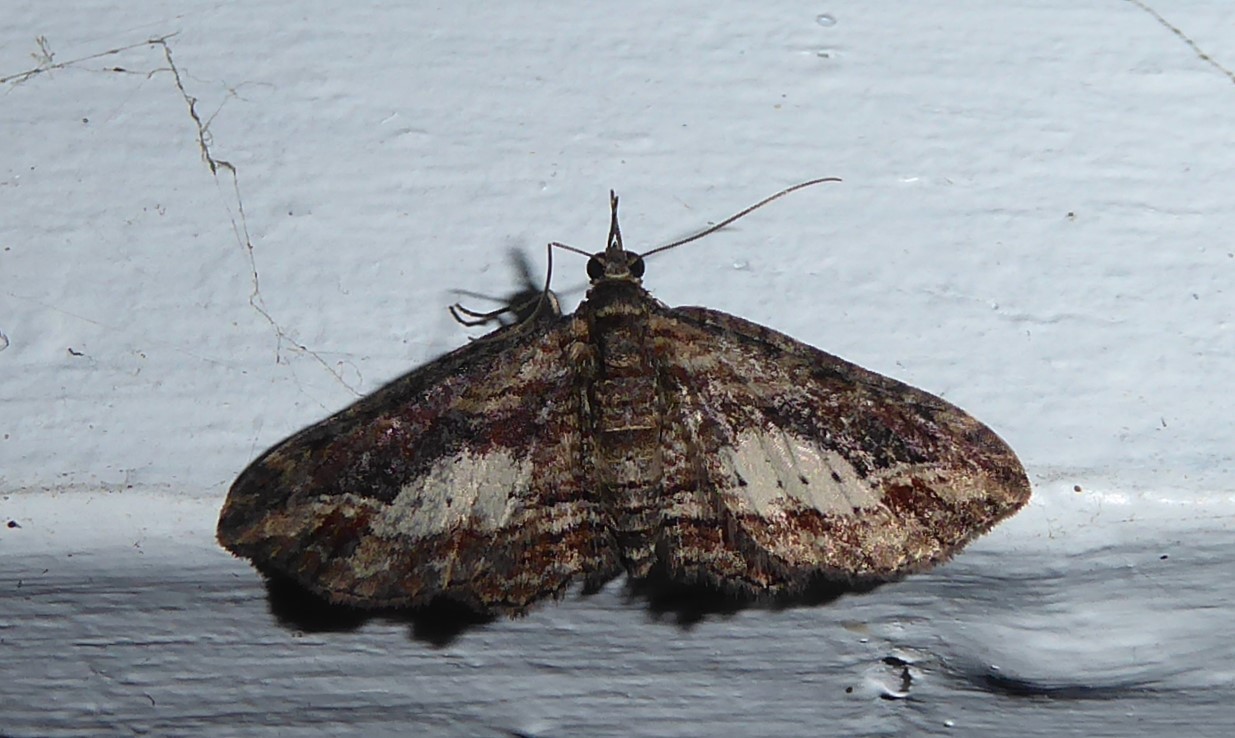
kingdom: Animalia
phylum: Arthropoda
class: Insecta
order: Lepidoptera
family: Geometridae
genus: Chloroclystis
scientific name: Chloroclystis filata
